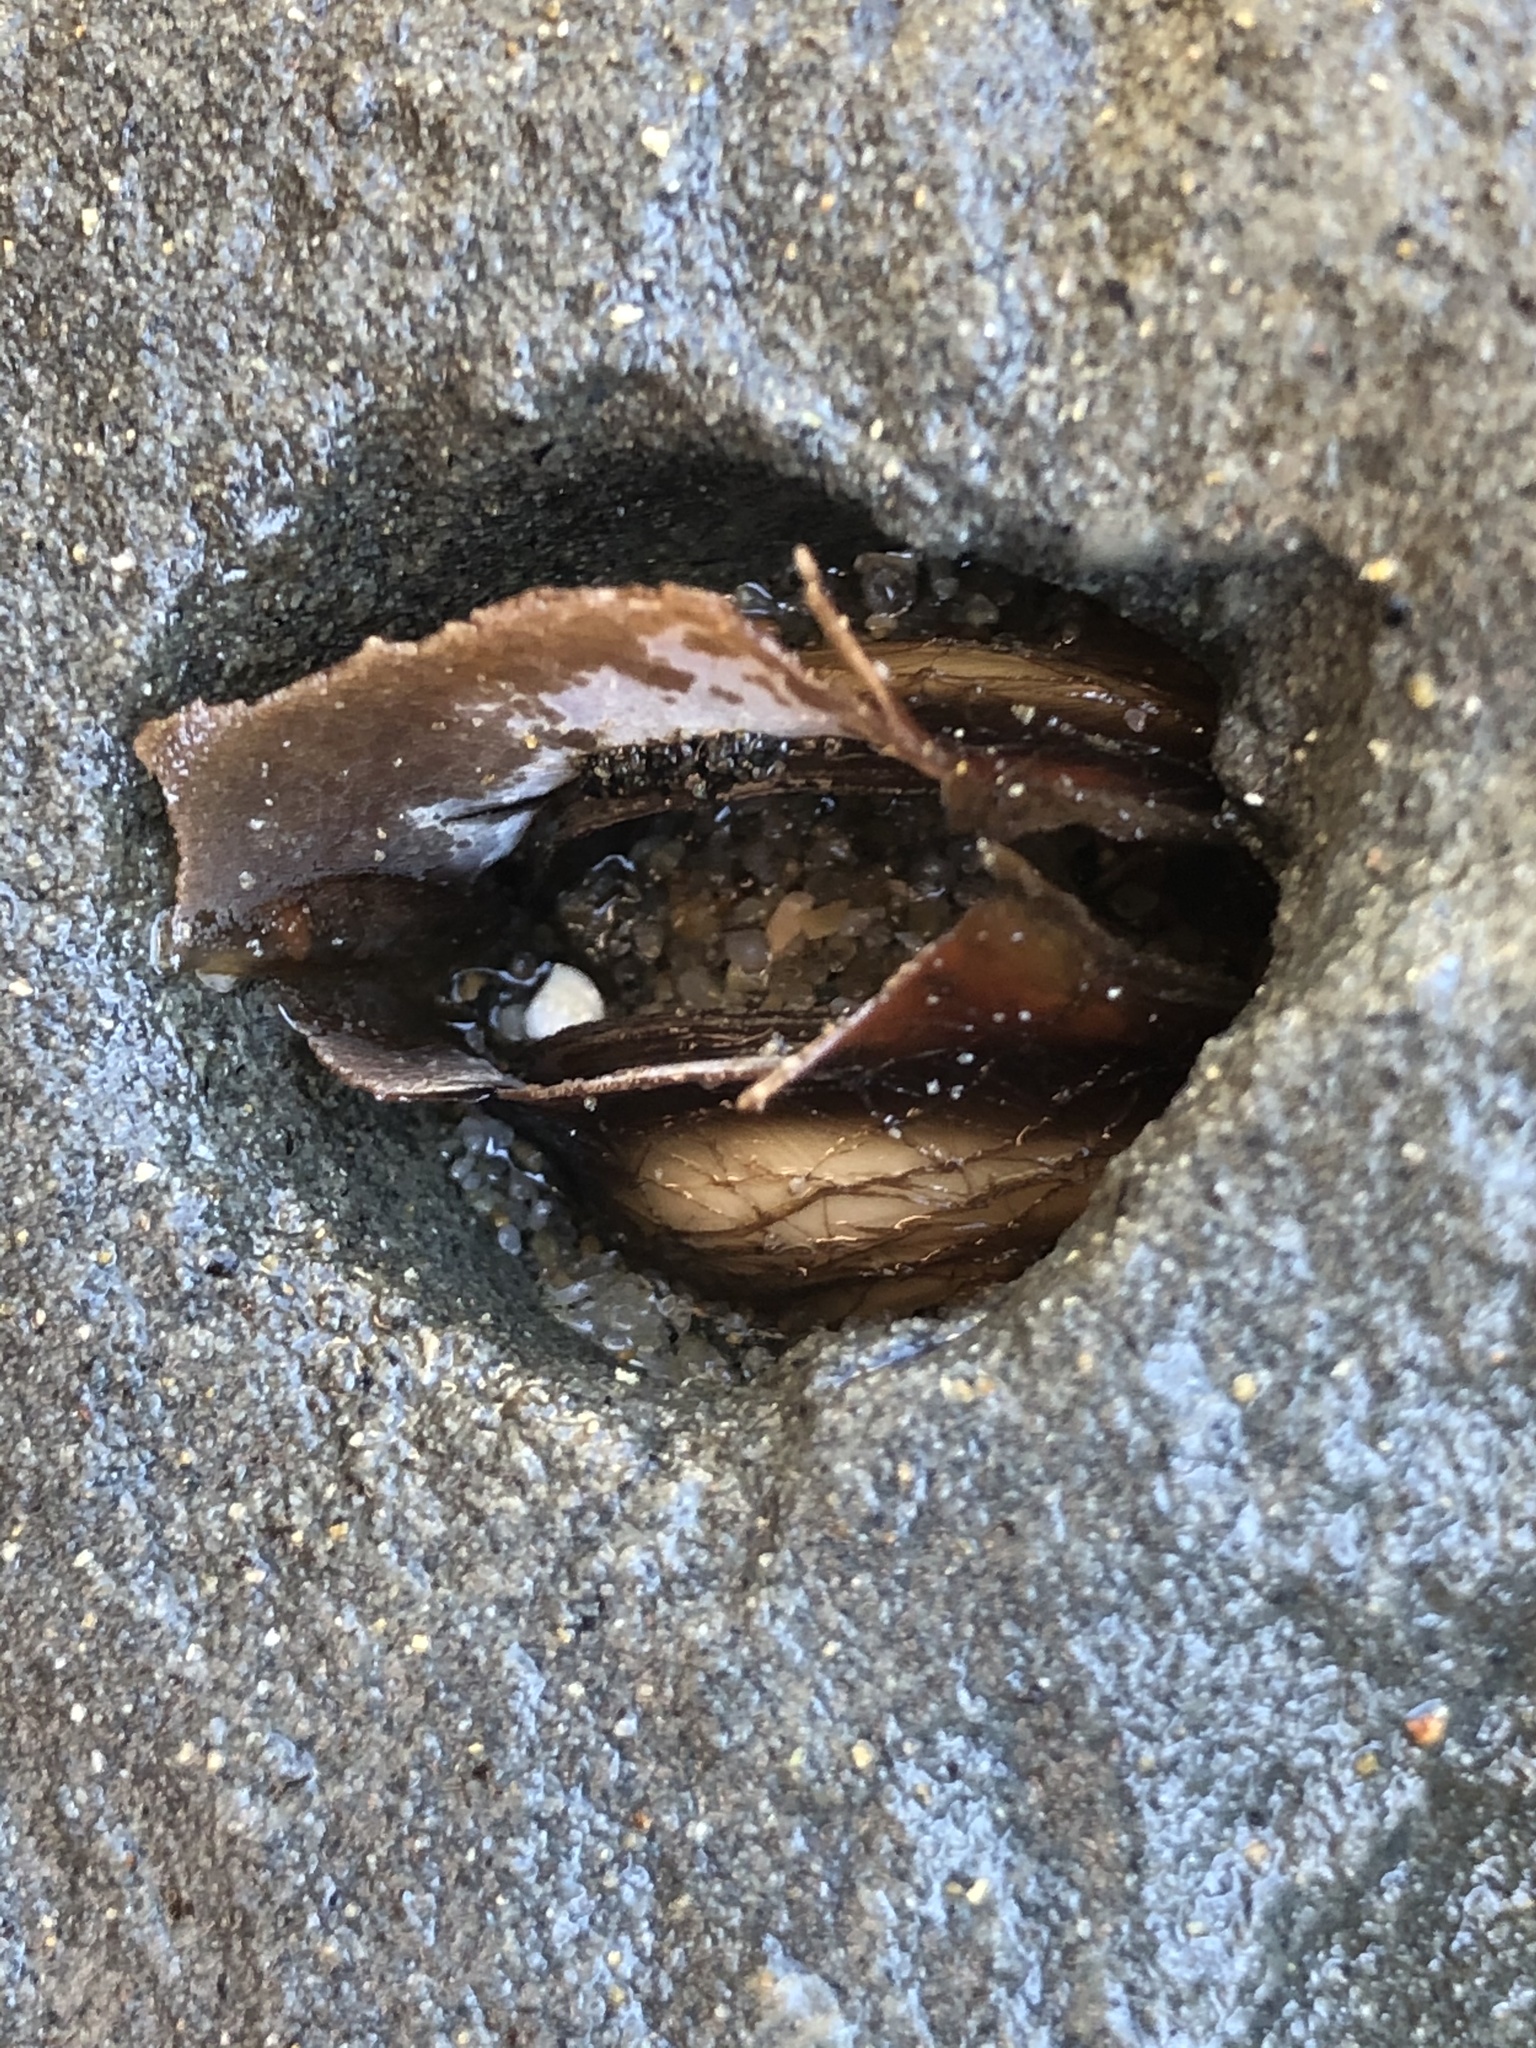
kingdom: Animalia
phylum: Mollusca
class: Bivalvia
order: Myida
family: Pholadidae
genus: Penitella
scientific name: Penitella penita
